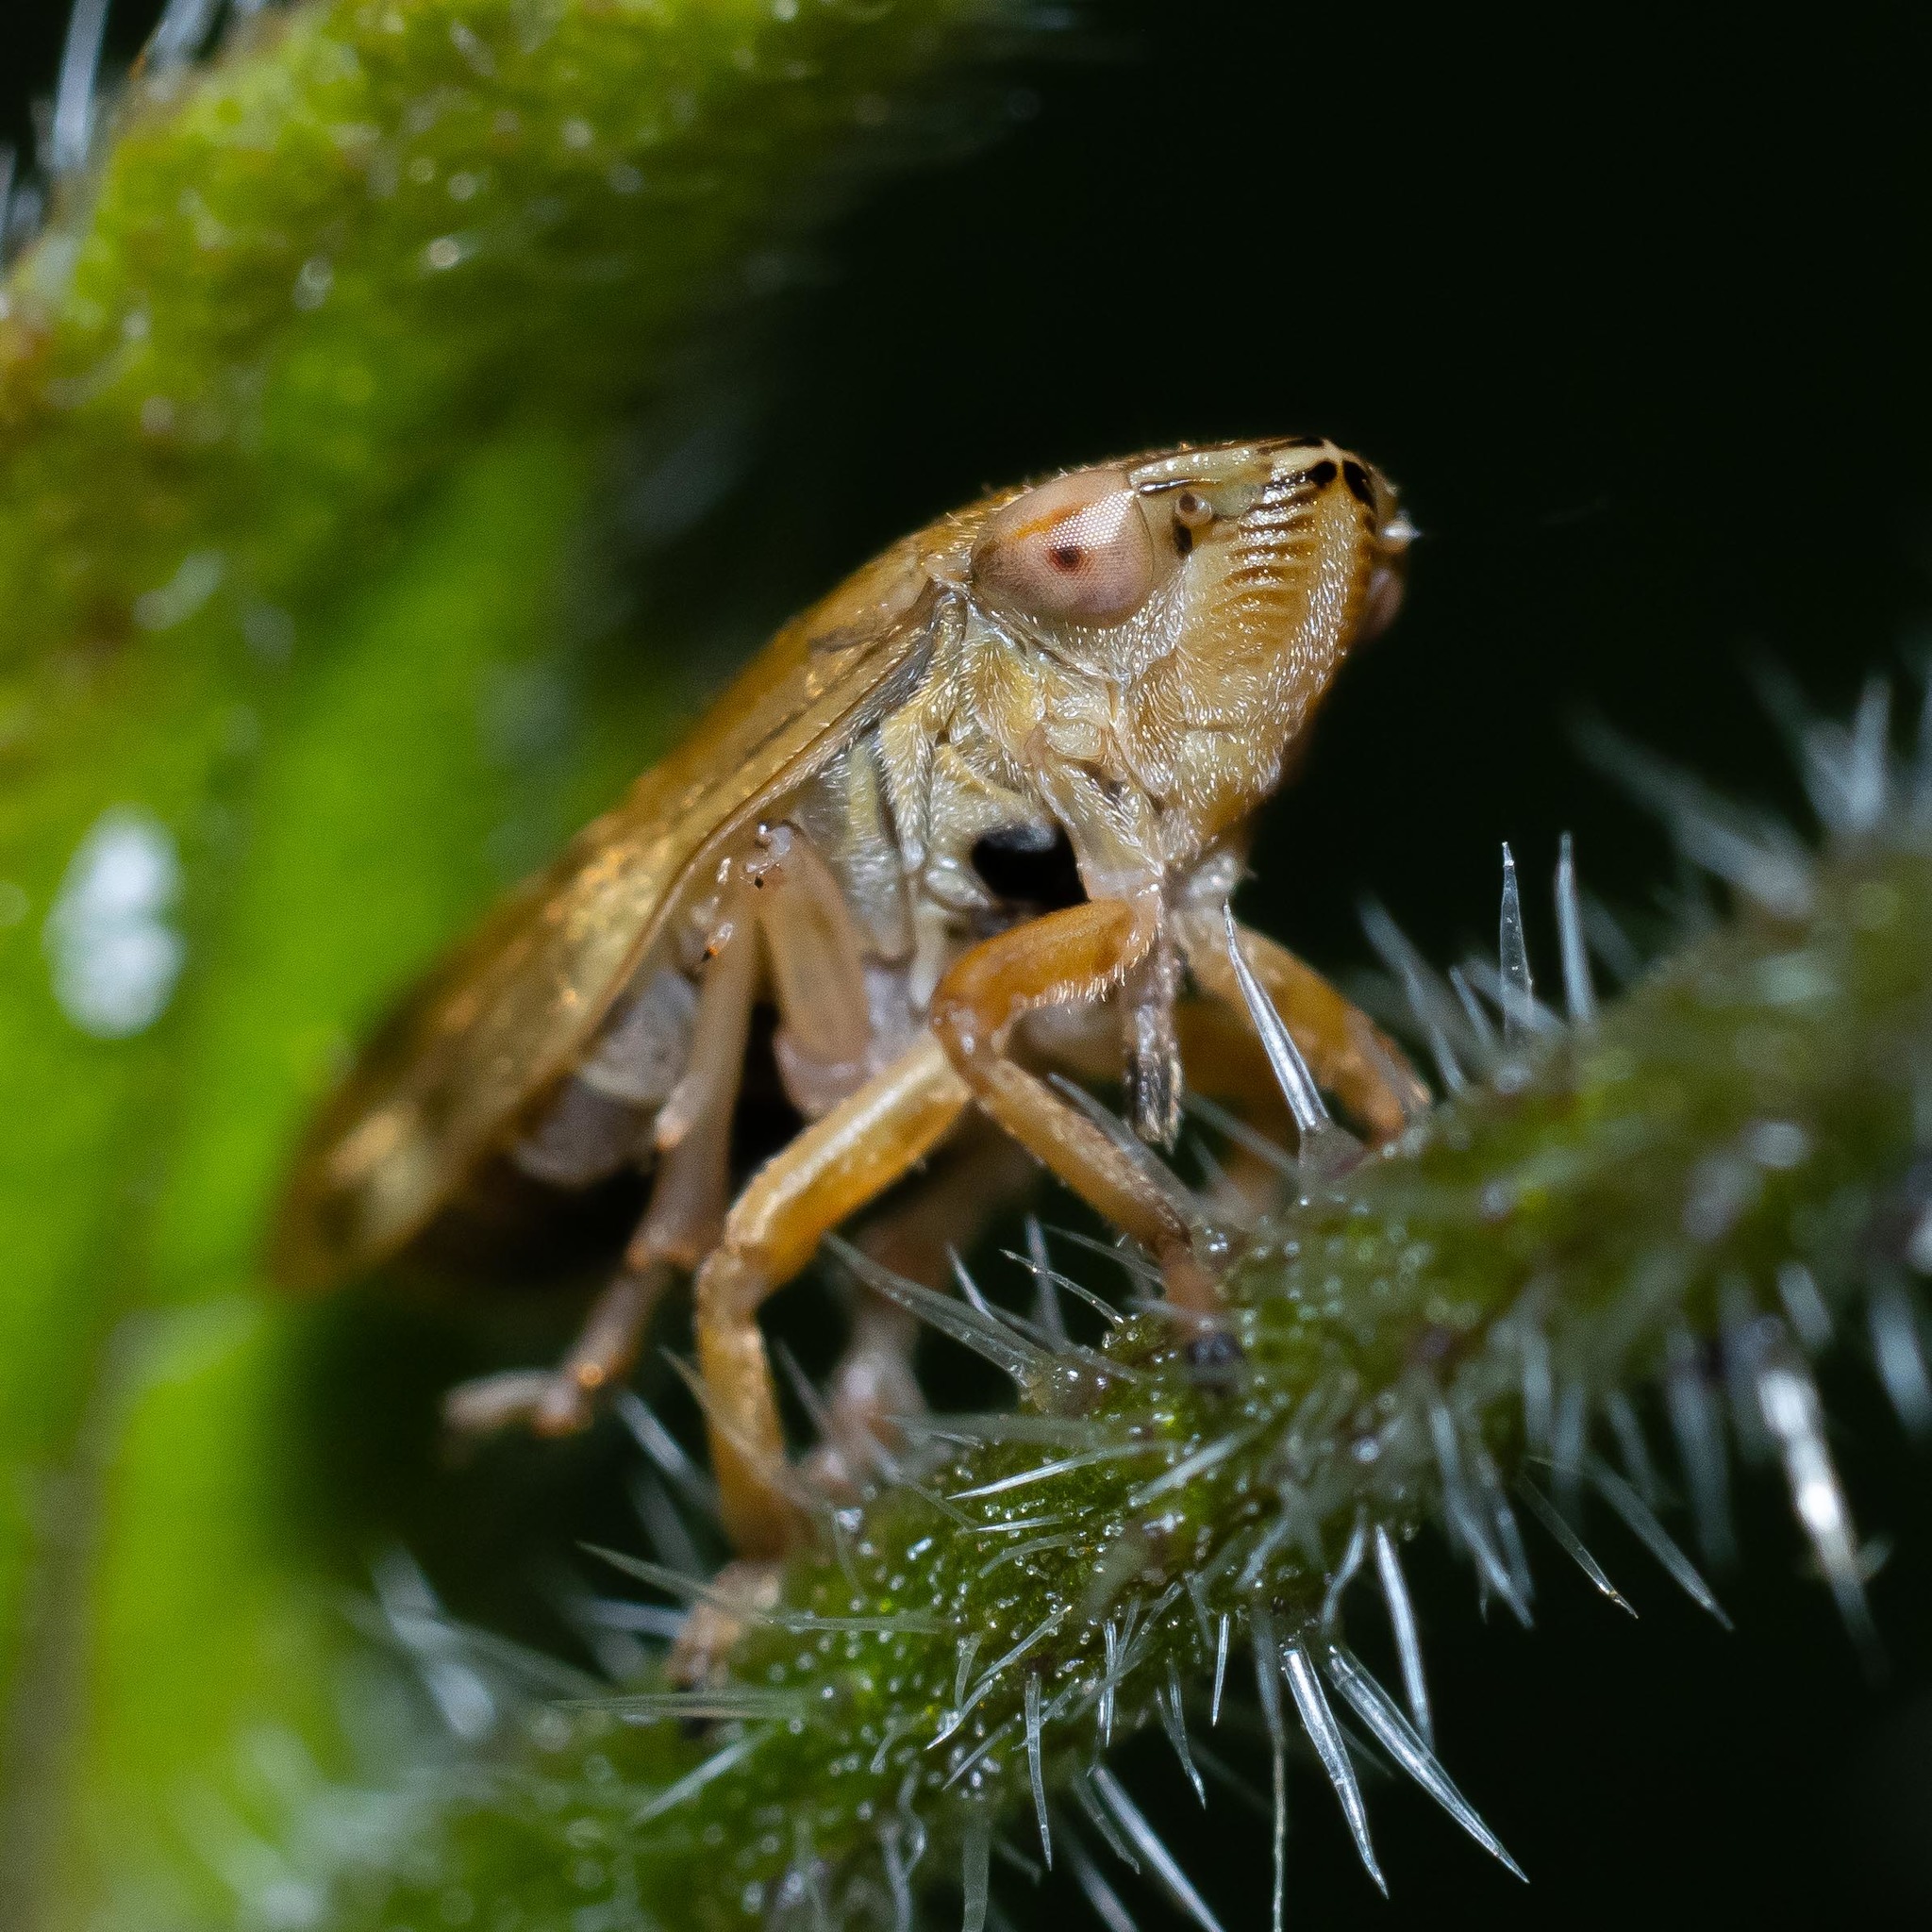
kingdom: Animalia
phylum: Arthropoda
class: Insecta
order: Hemiptera
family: Aphrophoridae
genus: Philaenus
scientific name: Philaenus spumarius
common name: Meadow spittlebug
